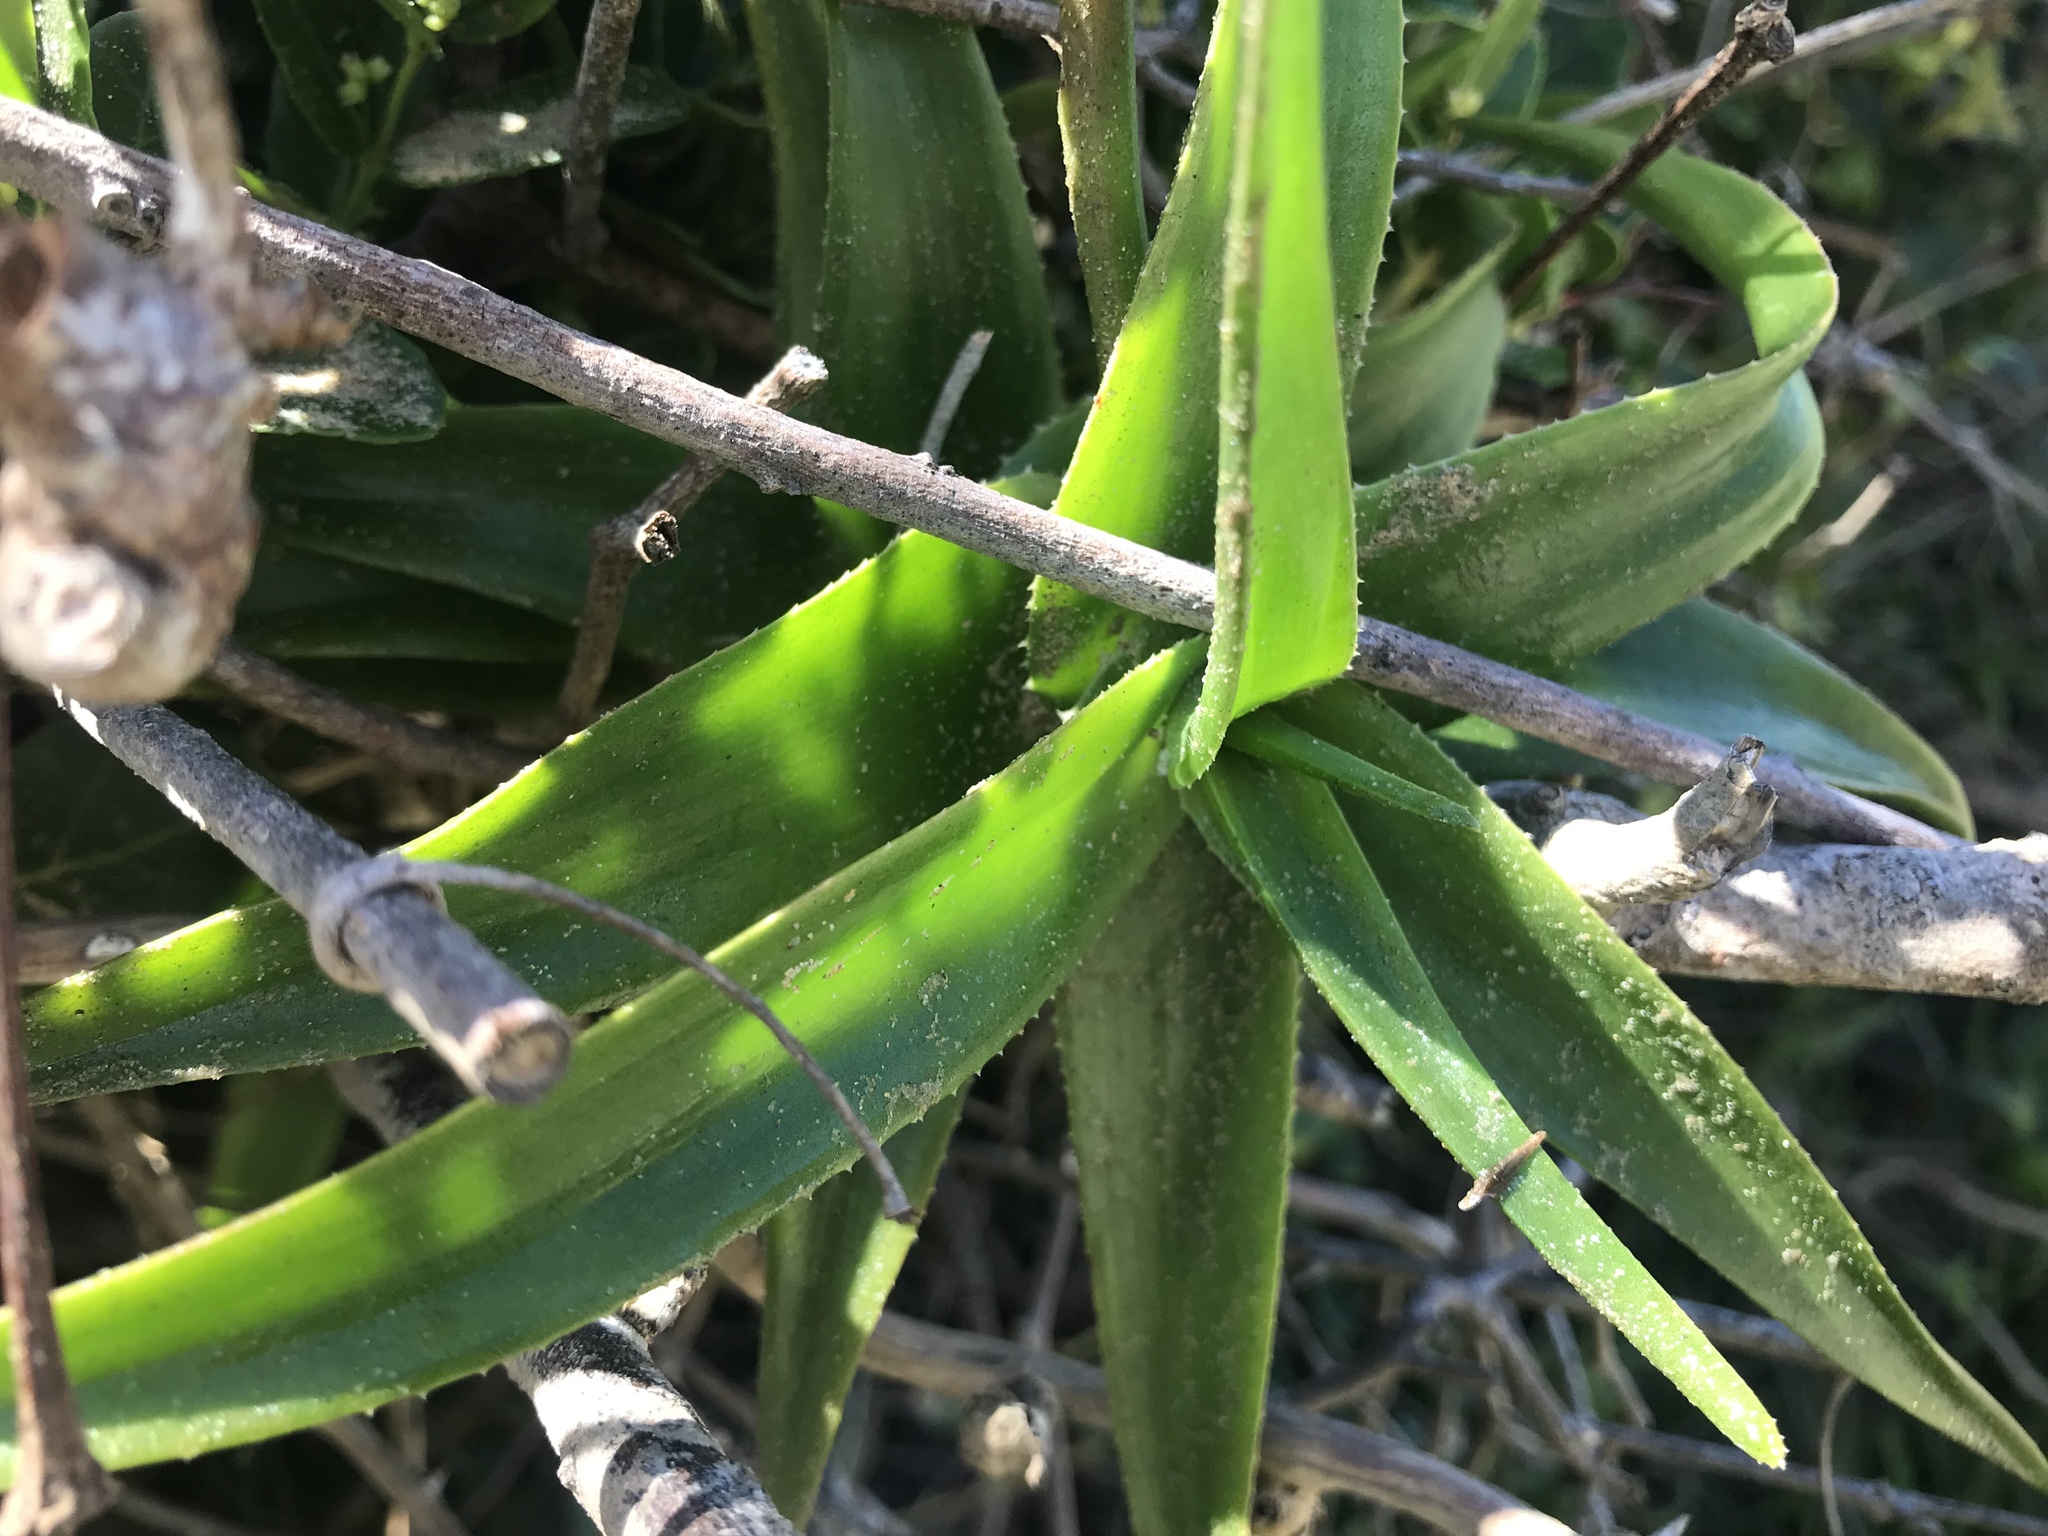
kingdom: Plantae
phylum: Tracheophyta
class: Liliopsida
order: Asparagales
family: Asphodelaceae
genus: Aloiampelos
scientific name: Aloiampelos ciliaris
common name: Climbing aloe
